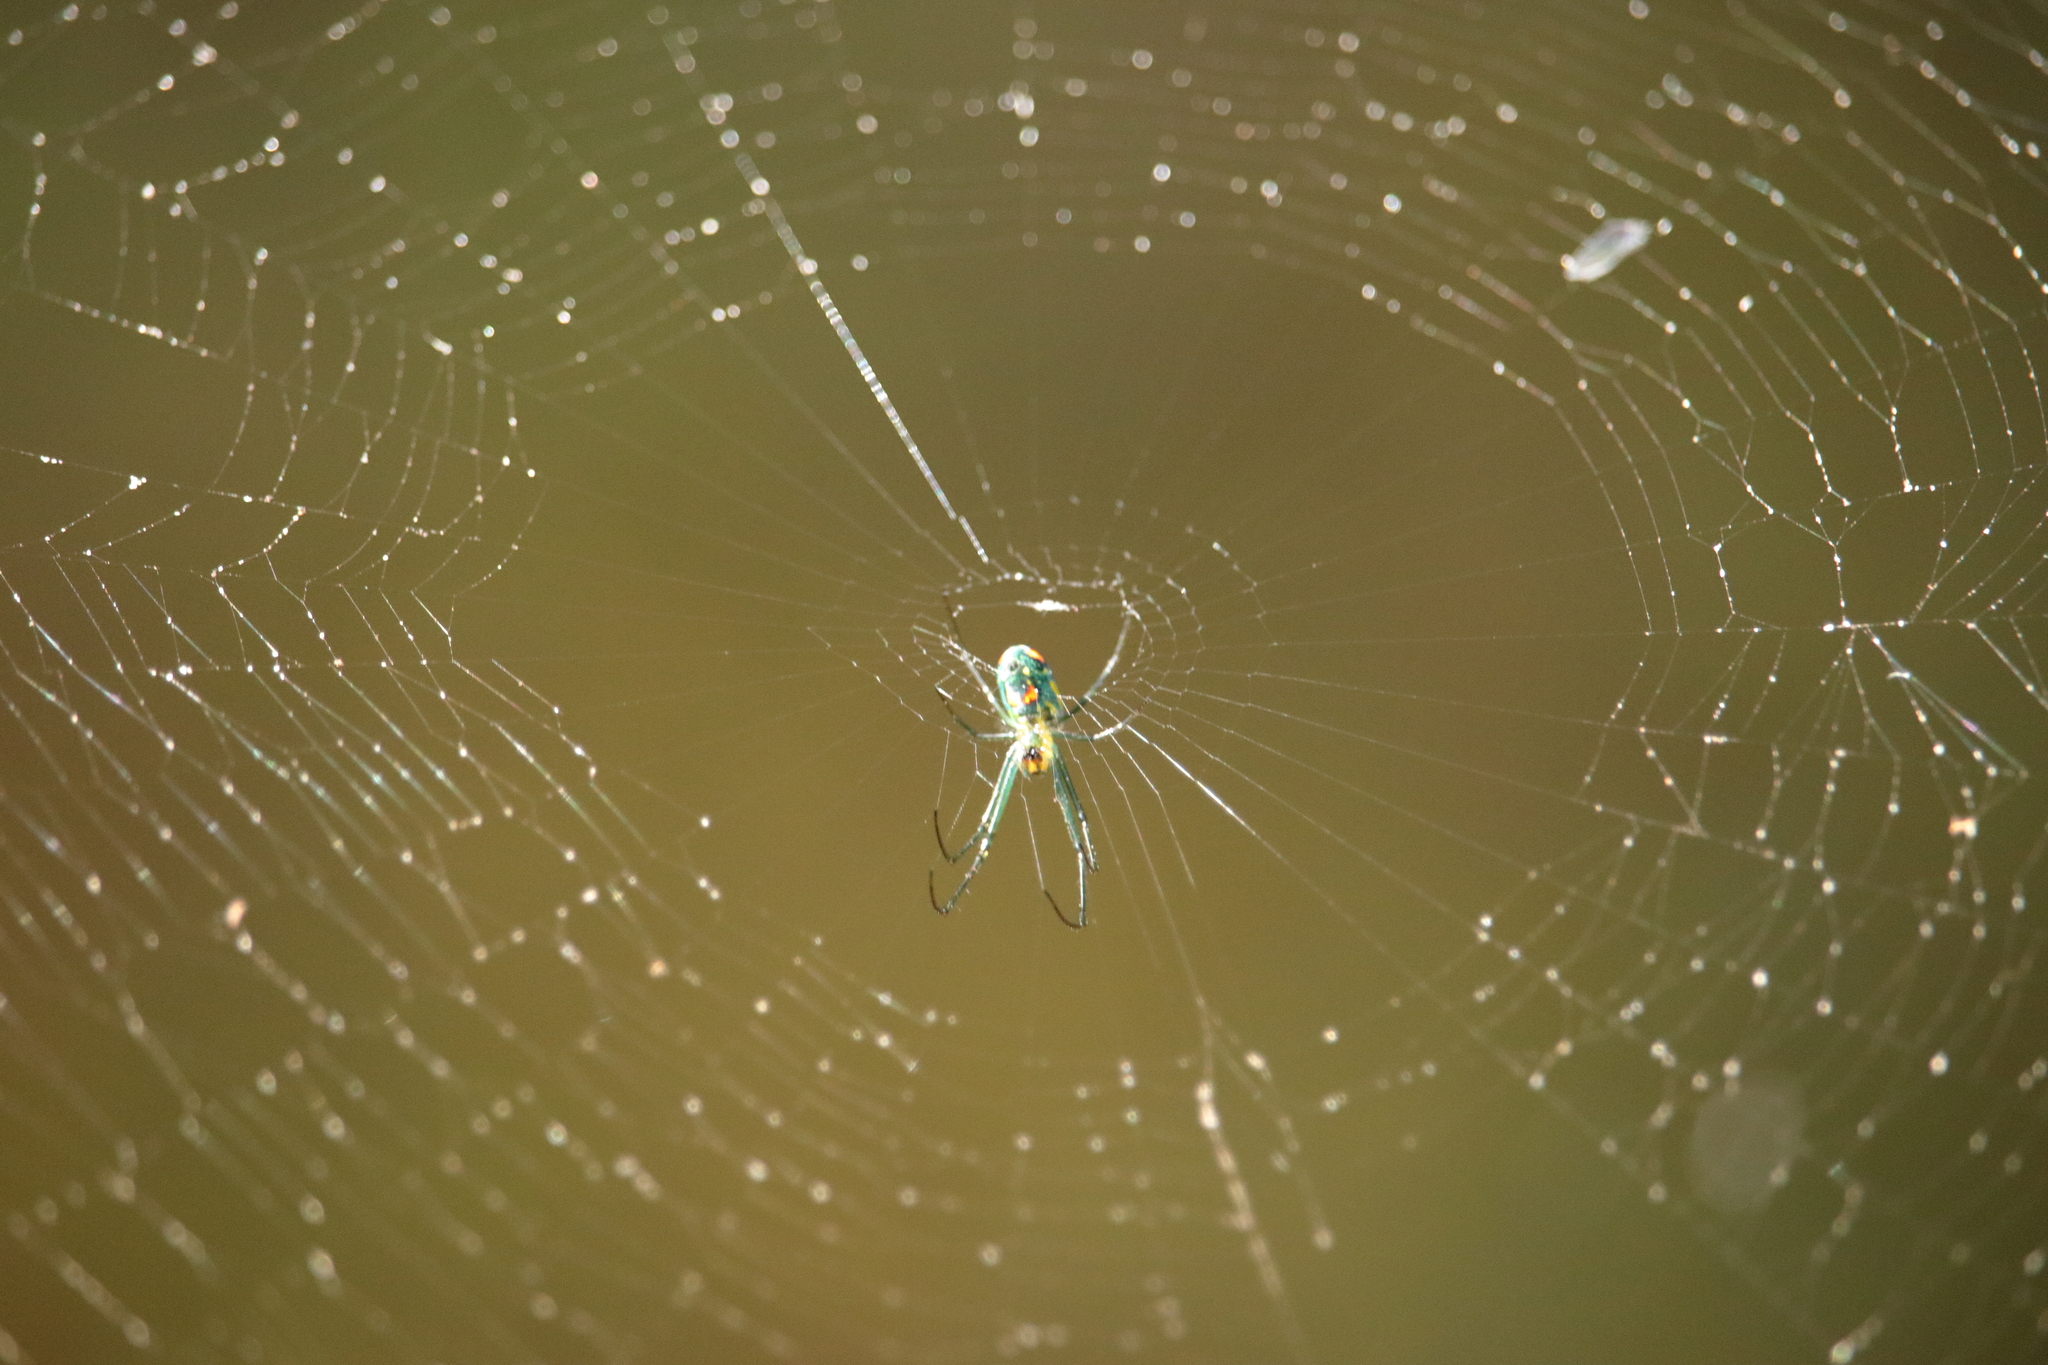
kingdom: Animalia
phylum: Arthropoda
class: Arachnida
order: Araneae
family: Tetragnathidae
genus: Leucauge
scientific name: Leucauge argyrobapta
